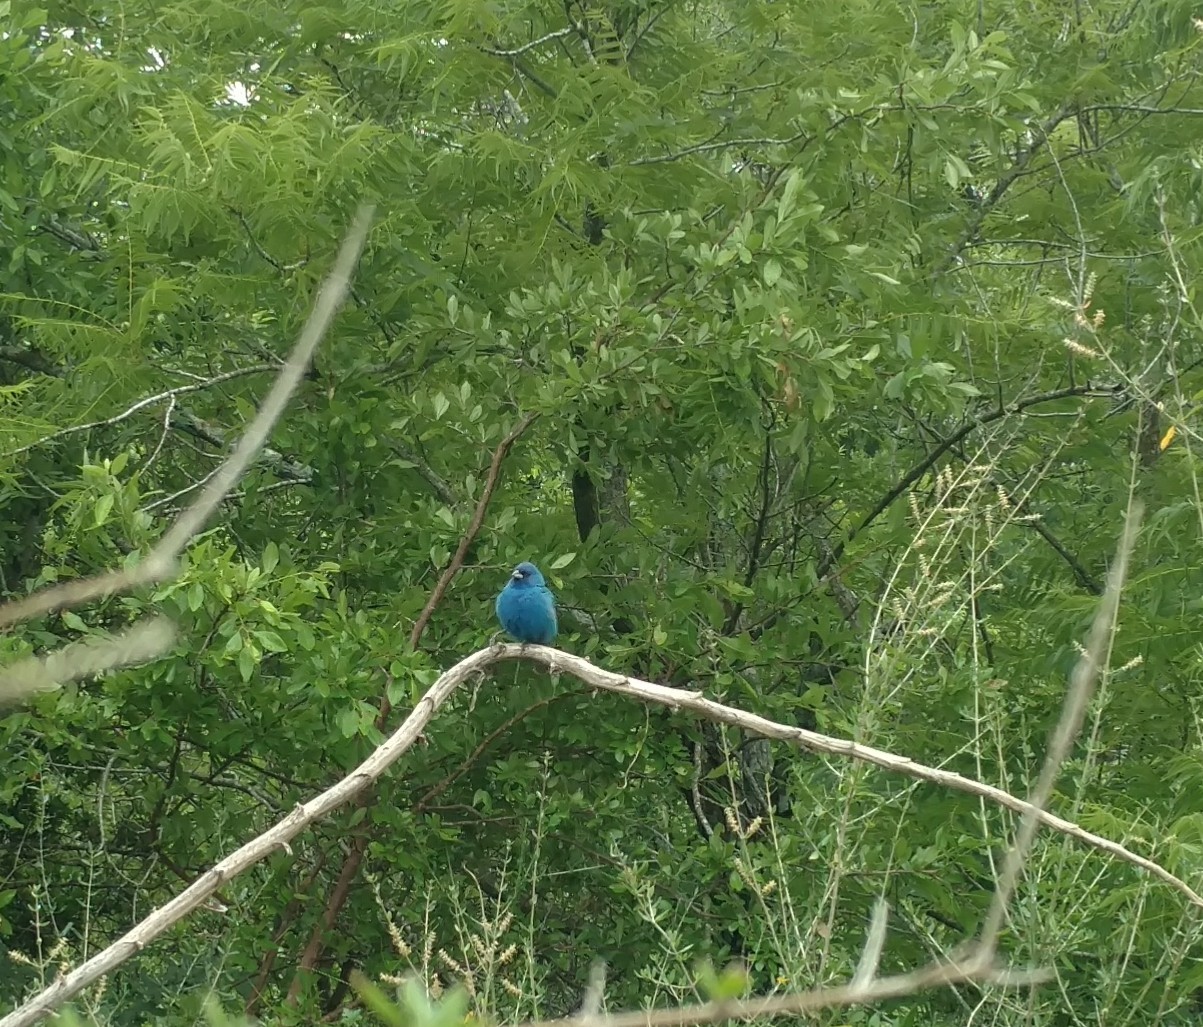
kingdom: Animalia
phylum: Chordata
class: Aves
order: Passeriformes
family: Cardinalidae
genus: Passerina
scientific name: Passerina cyanea
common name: Indigo bunting
